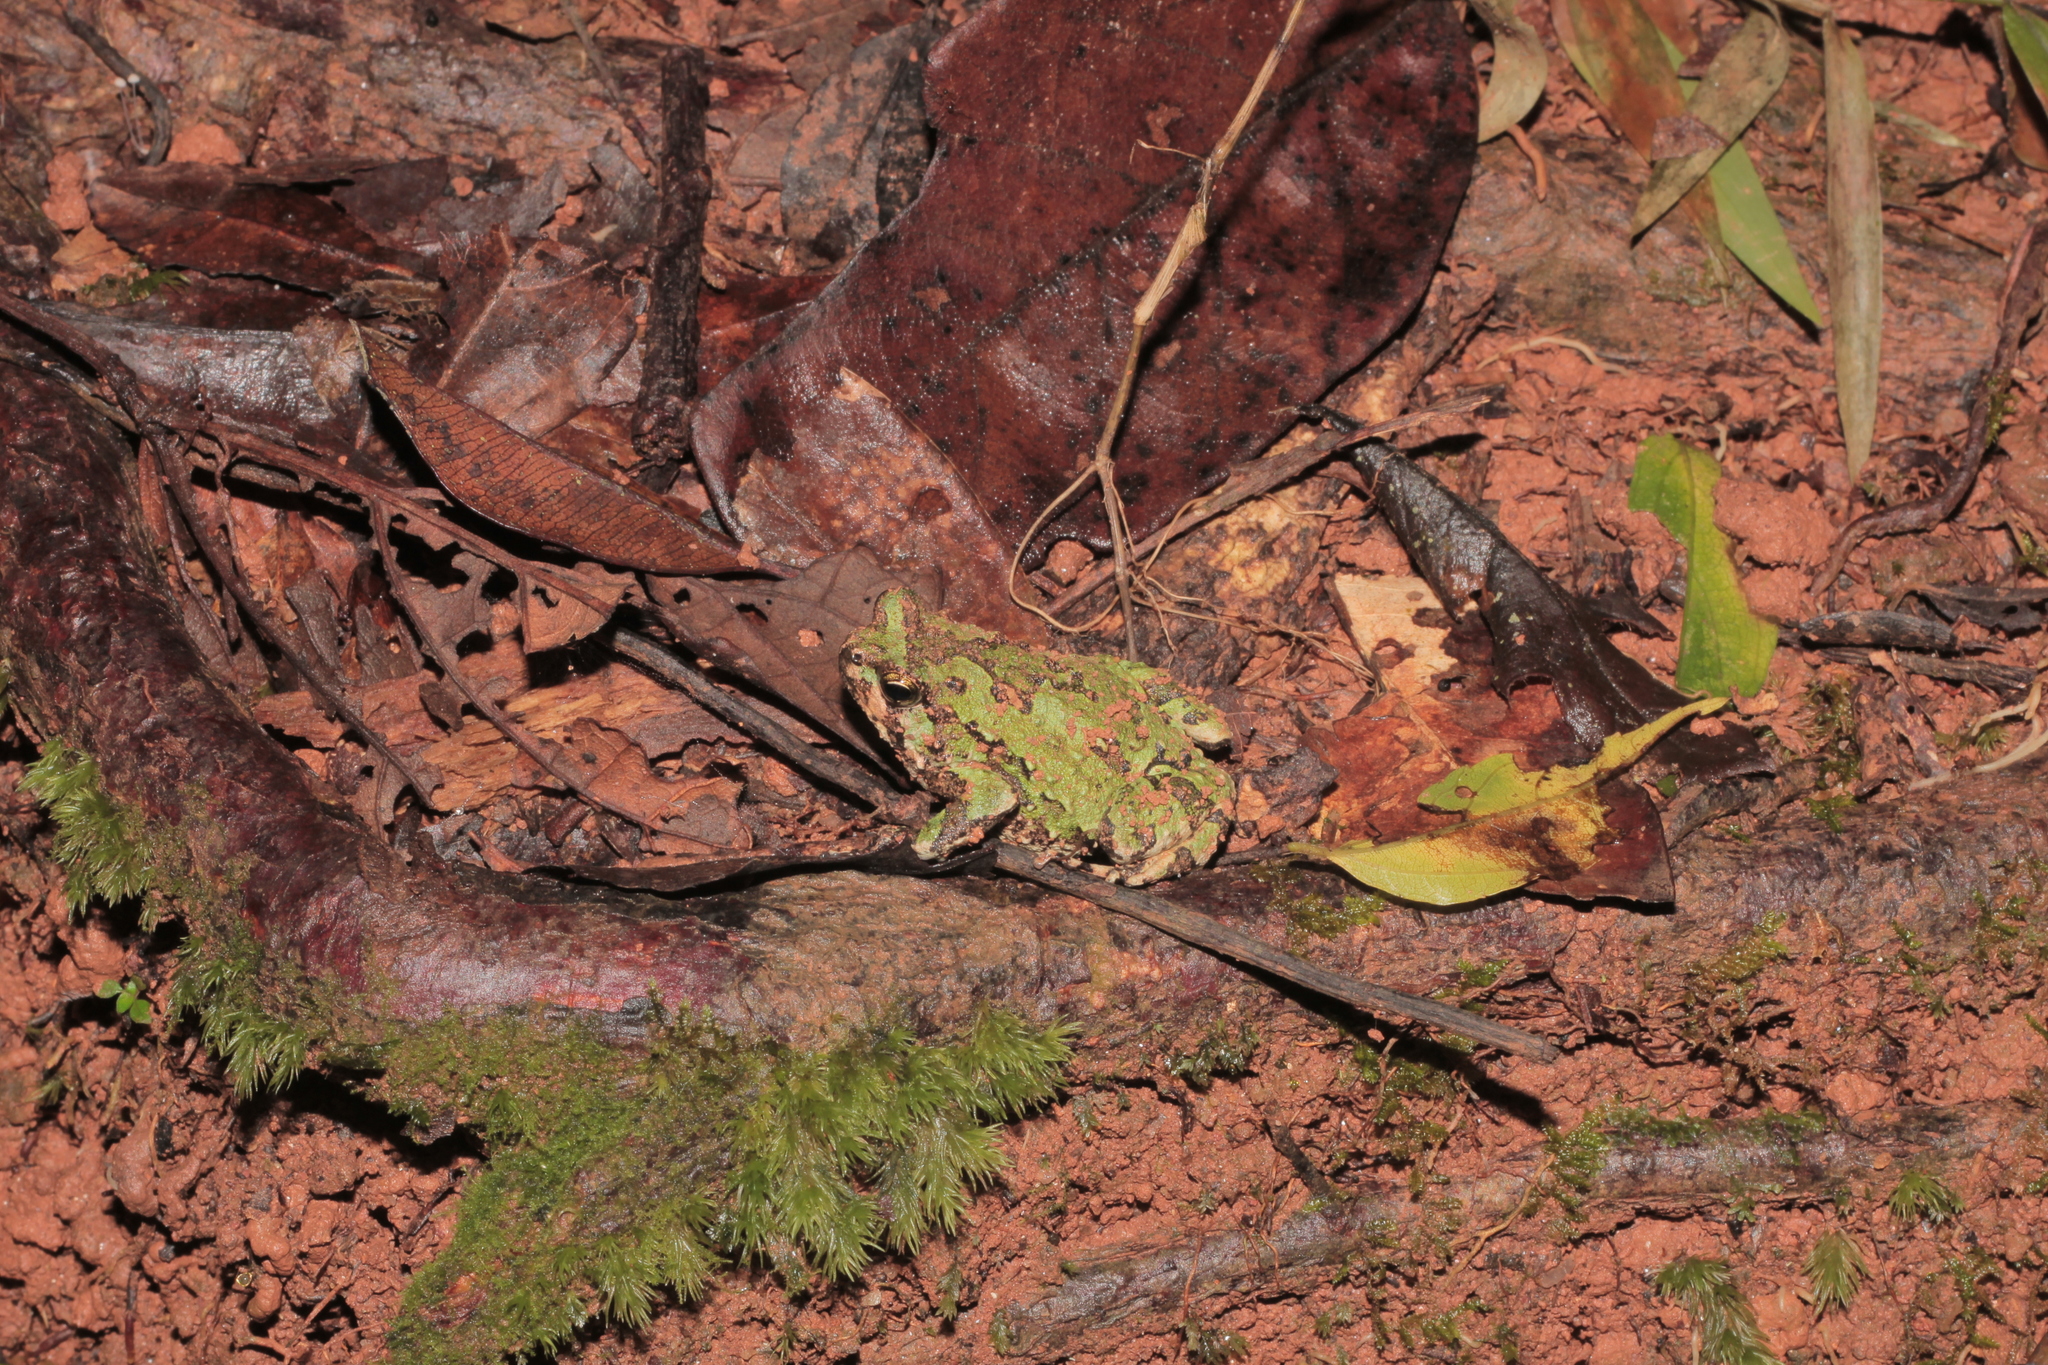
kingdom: Animalia
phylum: Chordata
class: Amphibia
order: Anura
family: Microhylidae
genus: Scaphiophryne
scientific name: Scaphiophryne marmorata
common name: Marbled rain frog
